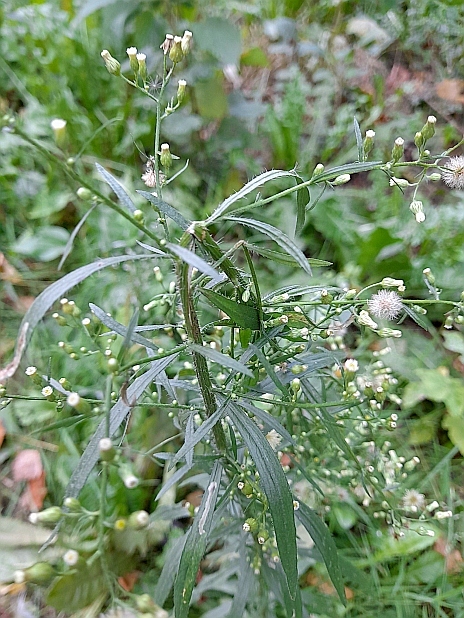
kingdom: Plantae
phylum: Tracheophyta
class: Magnoliopsida
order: Asterales
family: Asteraceae
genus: Erigeron
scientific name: Erigeron canadensis
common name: Canadian fleabane
